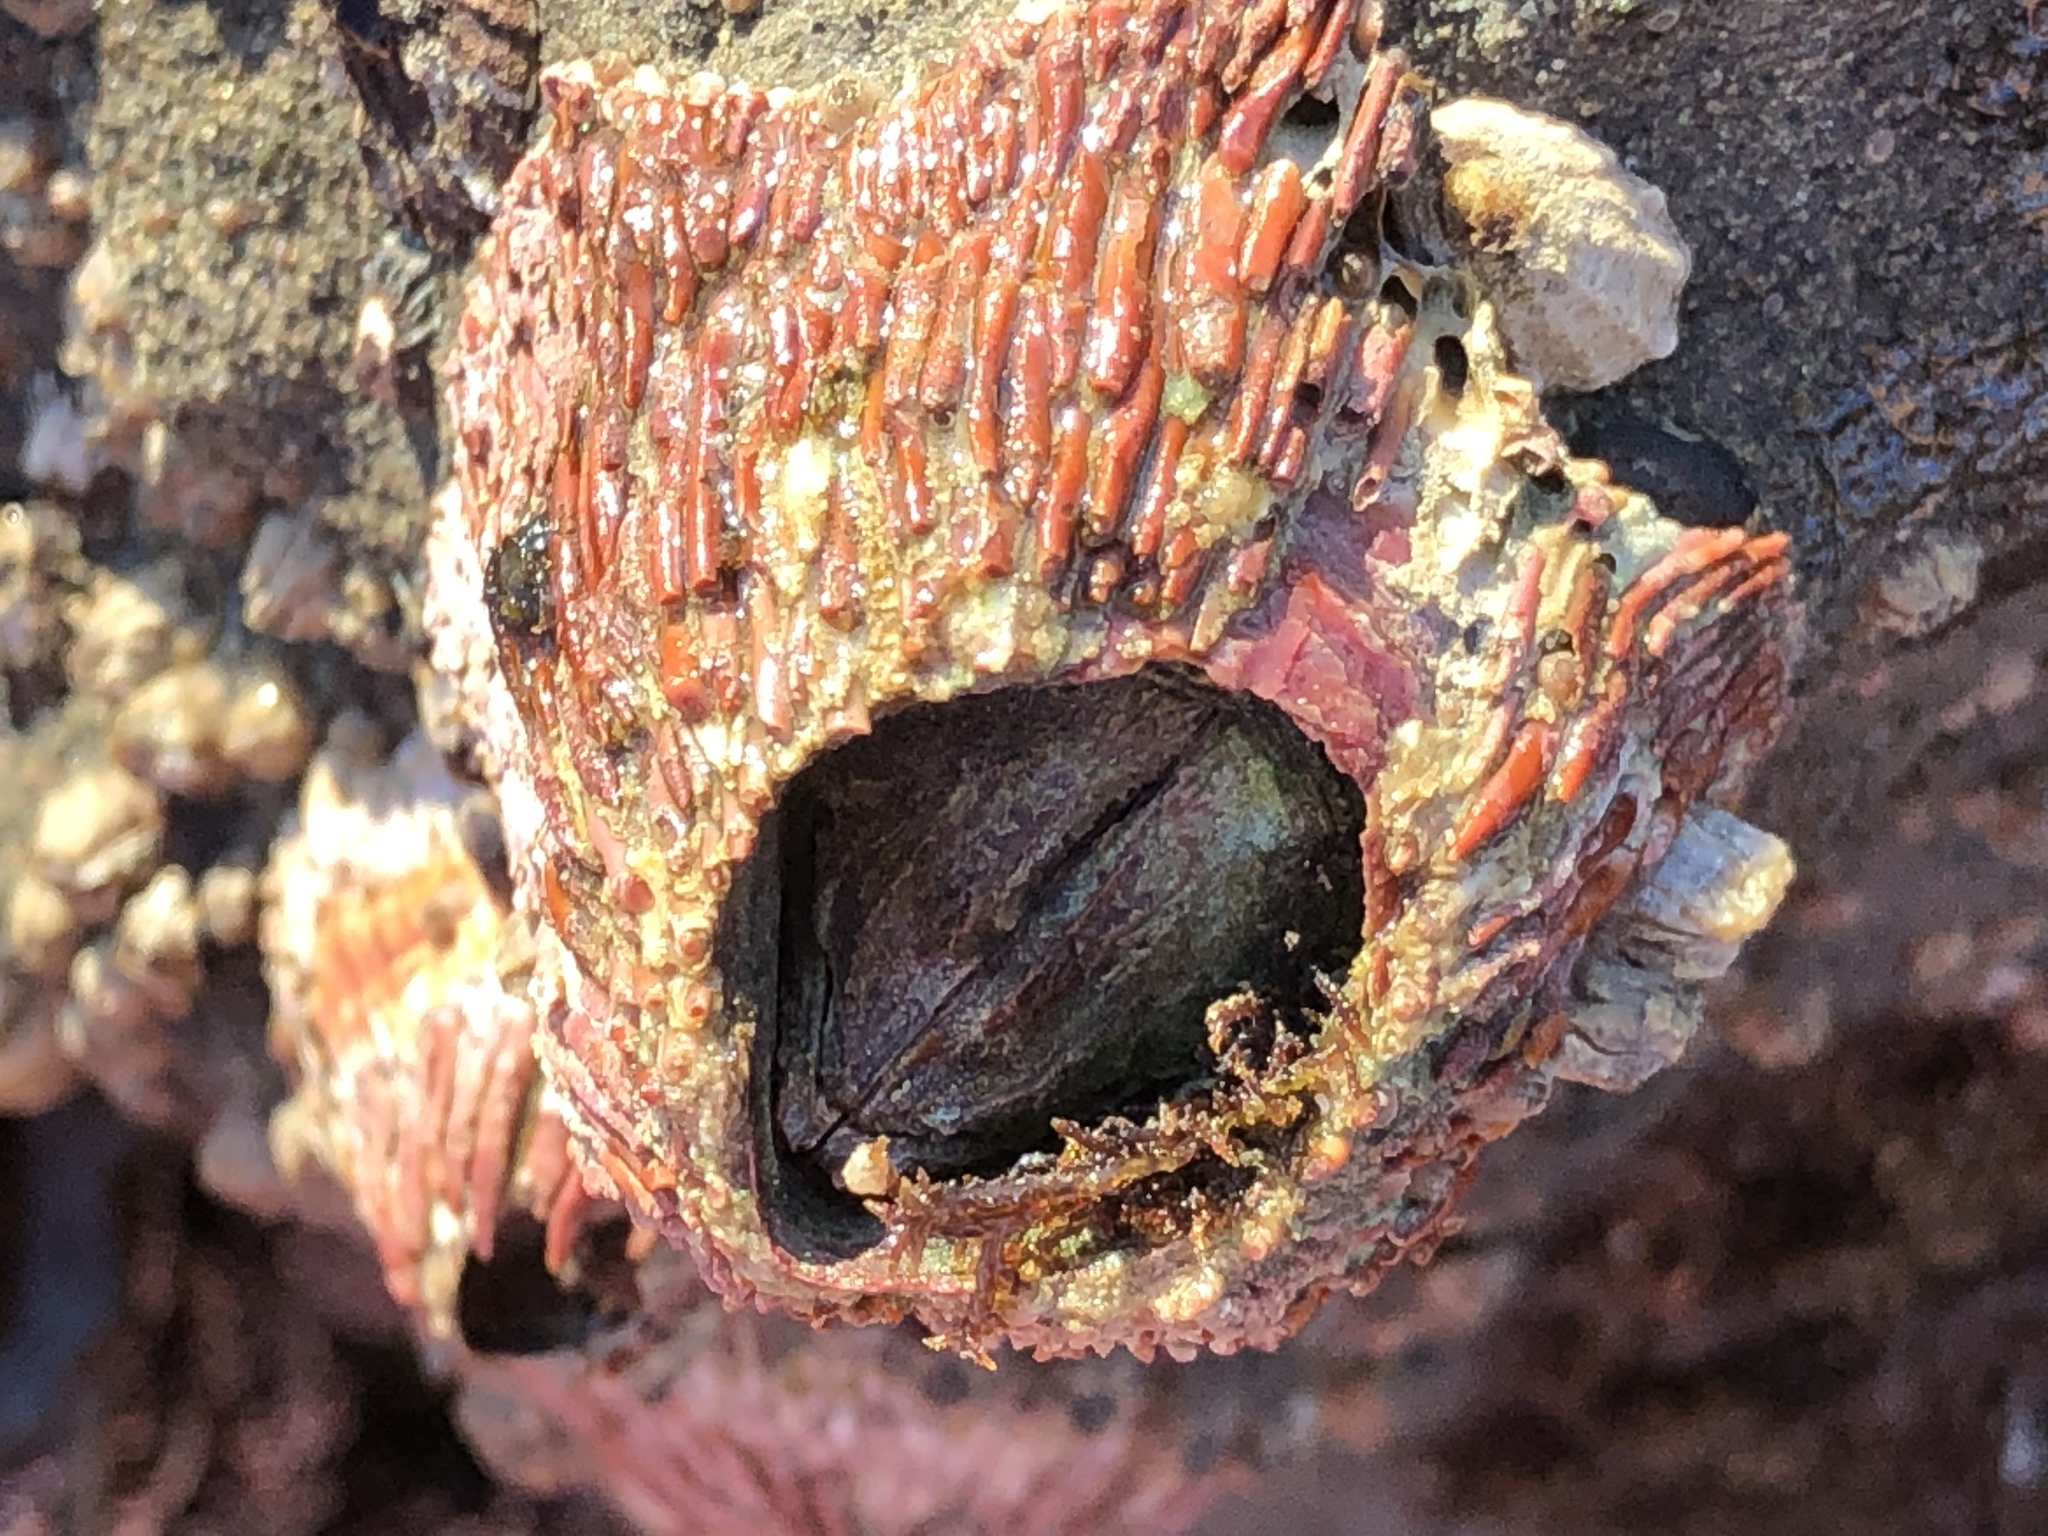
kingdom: Animalia
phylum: Arthropoda
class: Maxillopoda
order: Sessilia
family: Tetraclitidae
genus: Tetraclita
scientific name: Tetraclita rubescens
